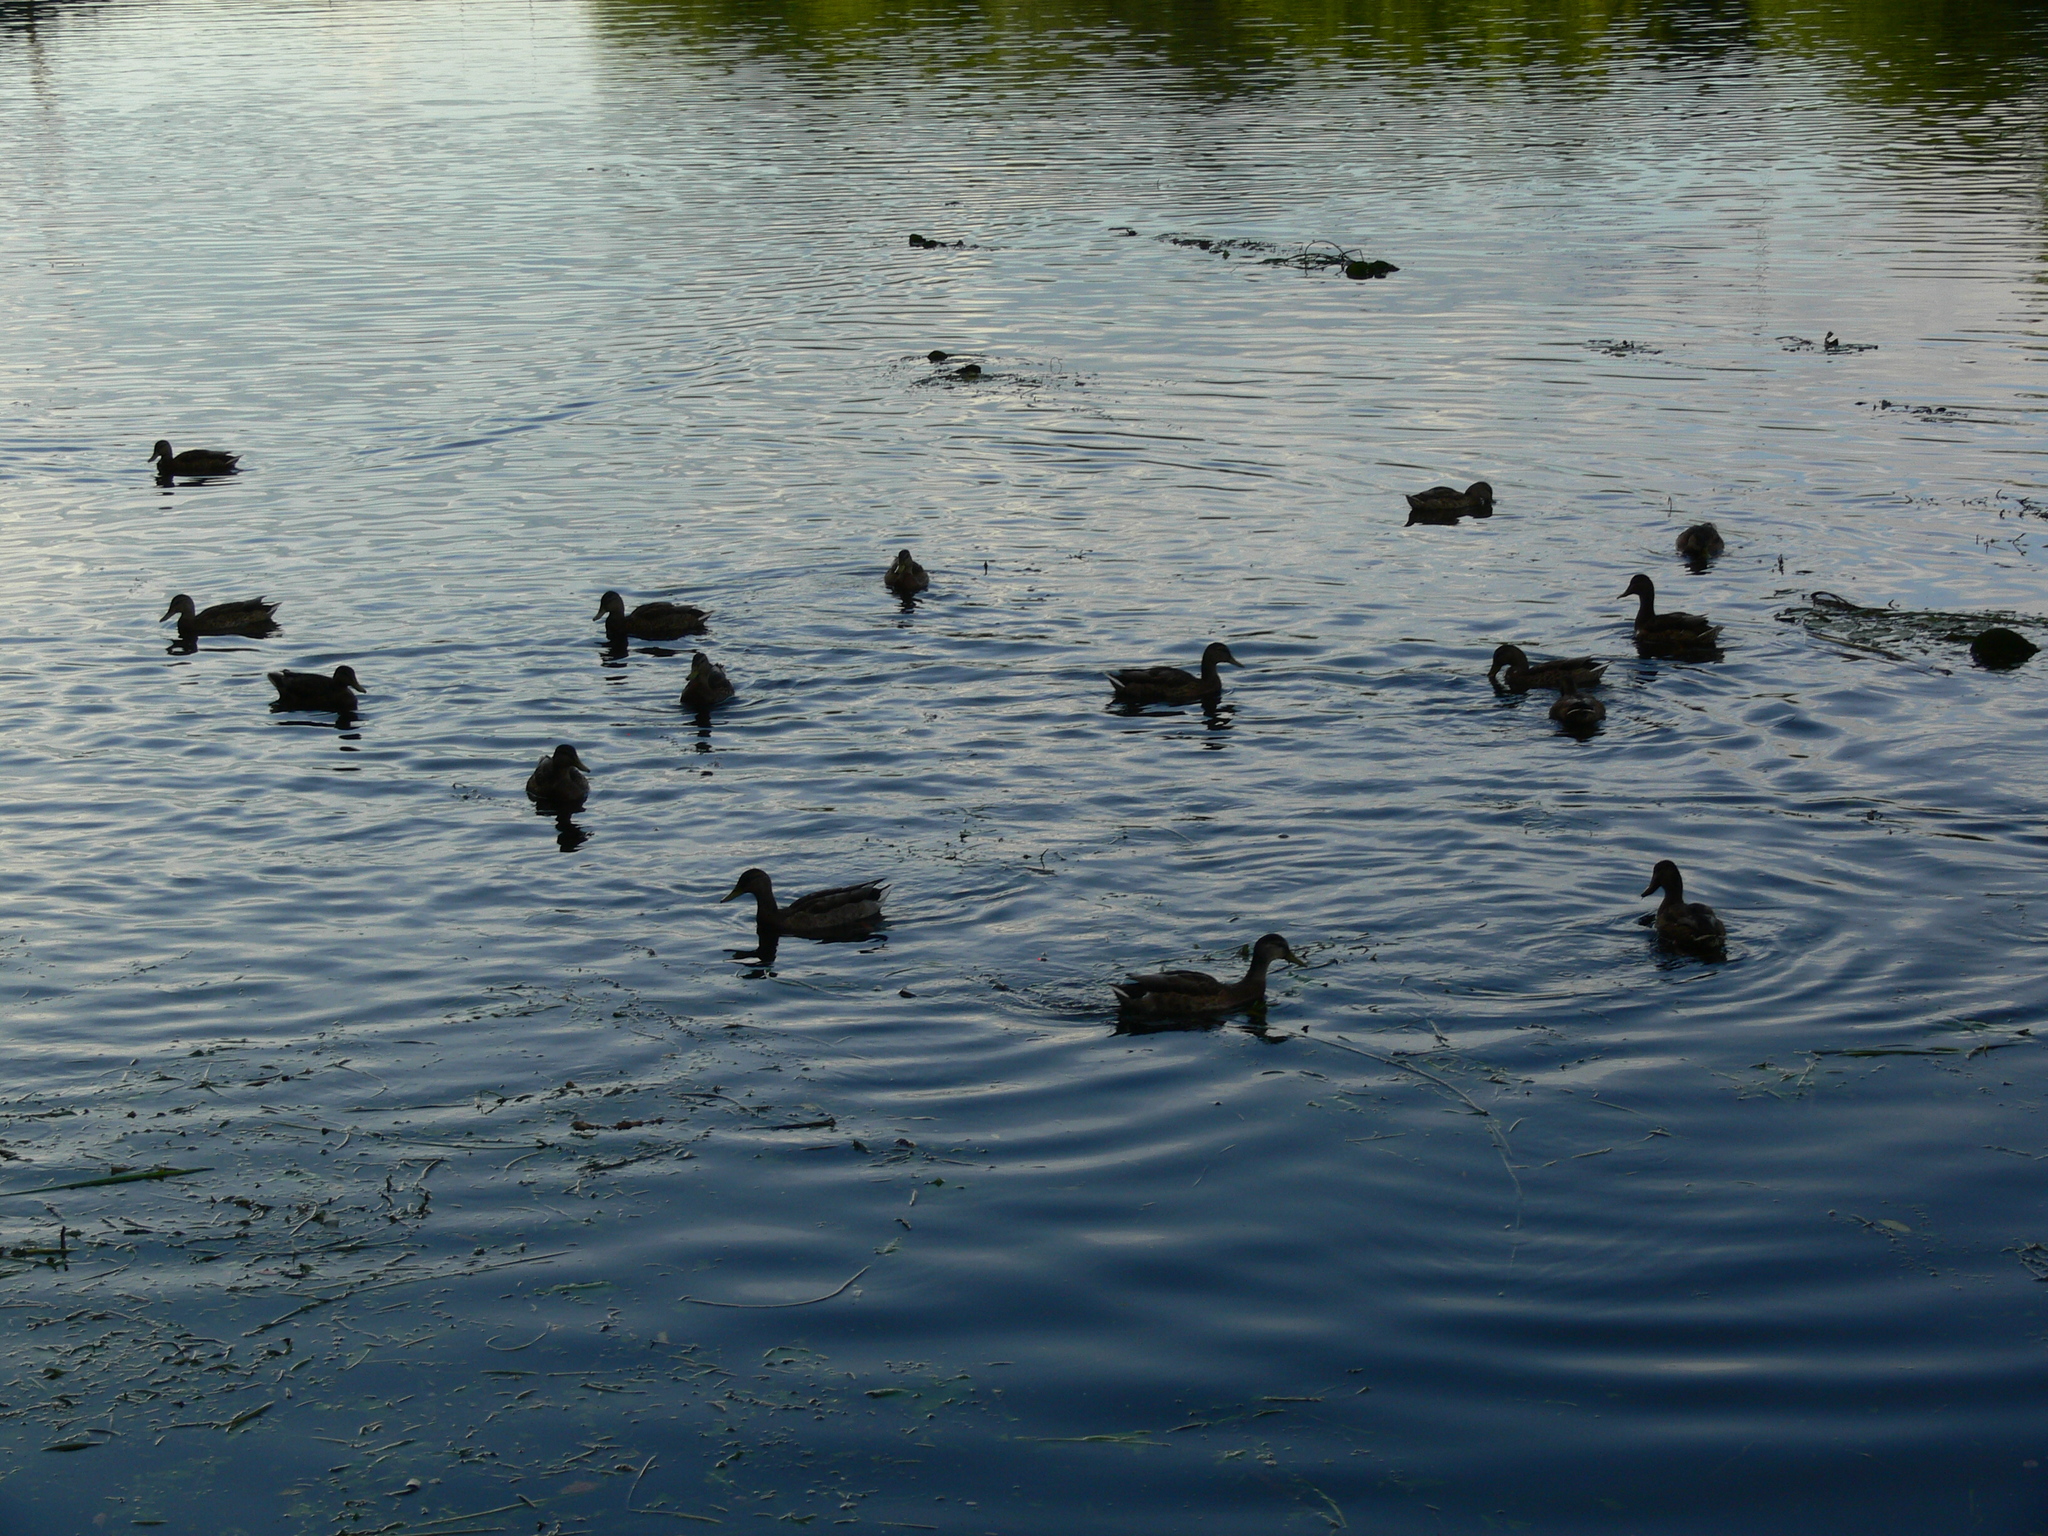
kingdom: Animalia
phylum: Chordata
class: Aves
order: Anseriformes
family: Anatidae
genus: Anas
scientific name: Anas platyrhynchos
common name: Mallard
